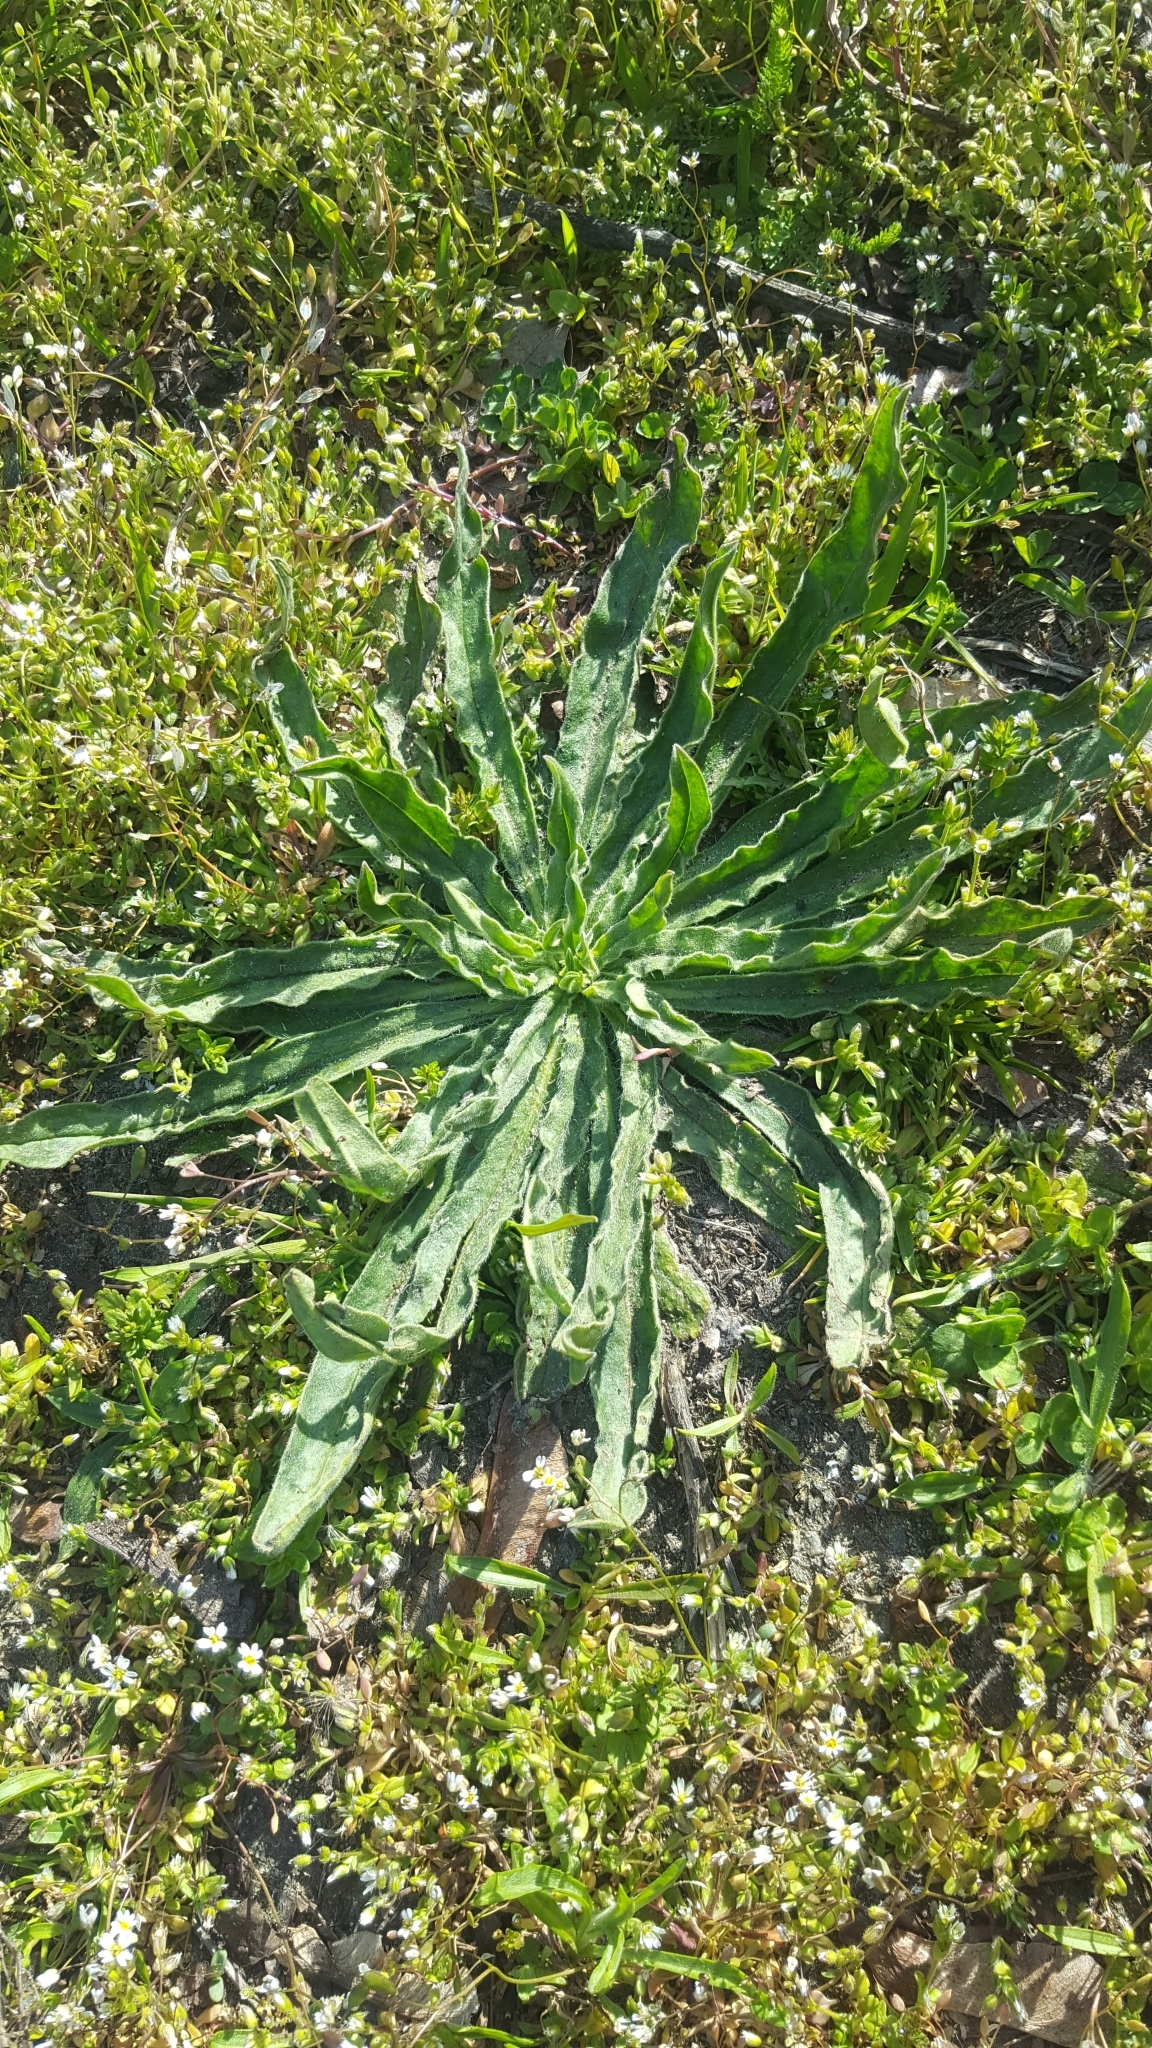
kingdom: Plantae
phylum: Tracheophyta
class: Magnoliopsida
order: Boraginales
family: Boraginaceae
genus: Echium
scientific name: Echium vulgare
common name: Common viper's bugloss
